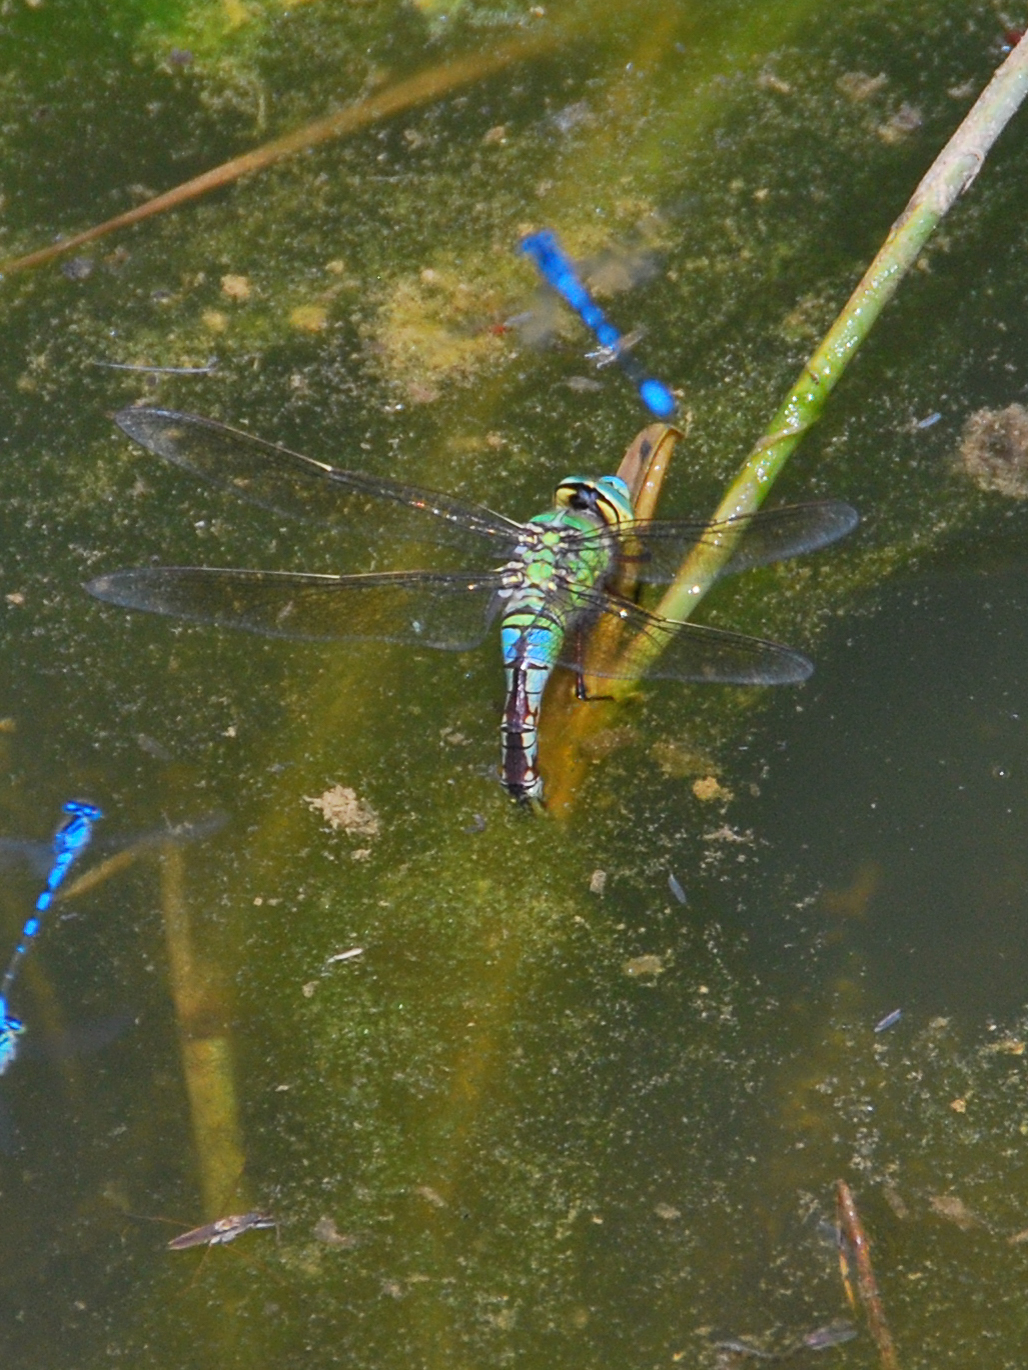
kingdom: Animalia
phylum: Arthropoda
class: Insecta
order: Odonata
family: Aeshnidae
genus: Anax
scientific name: Anax imperator
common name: Emperor dragonfly
